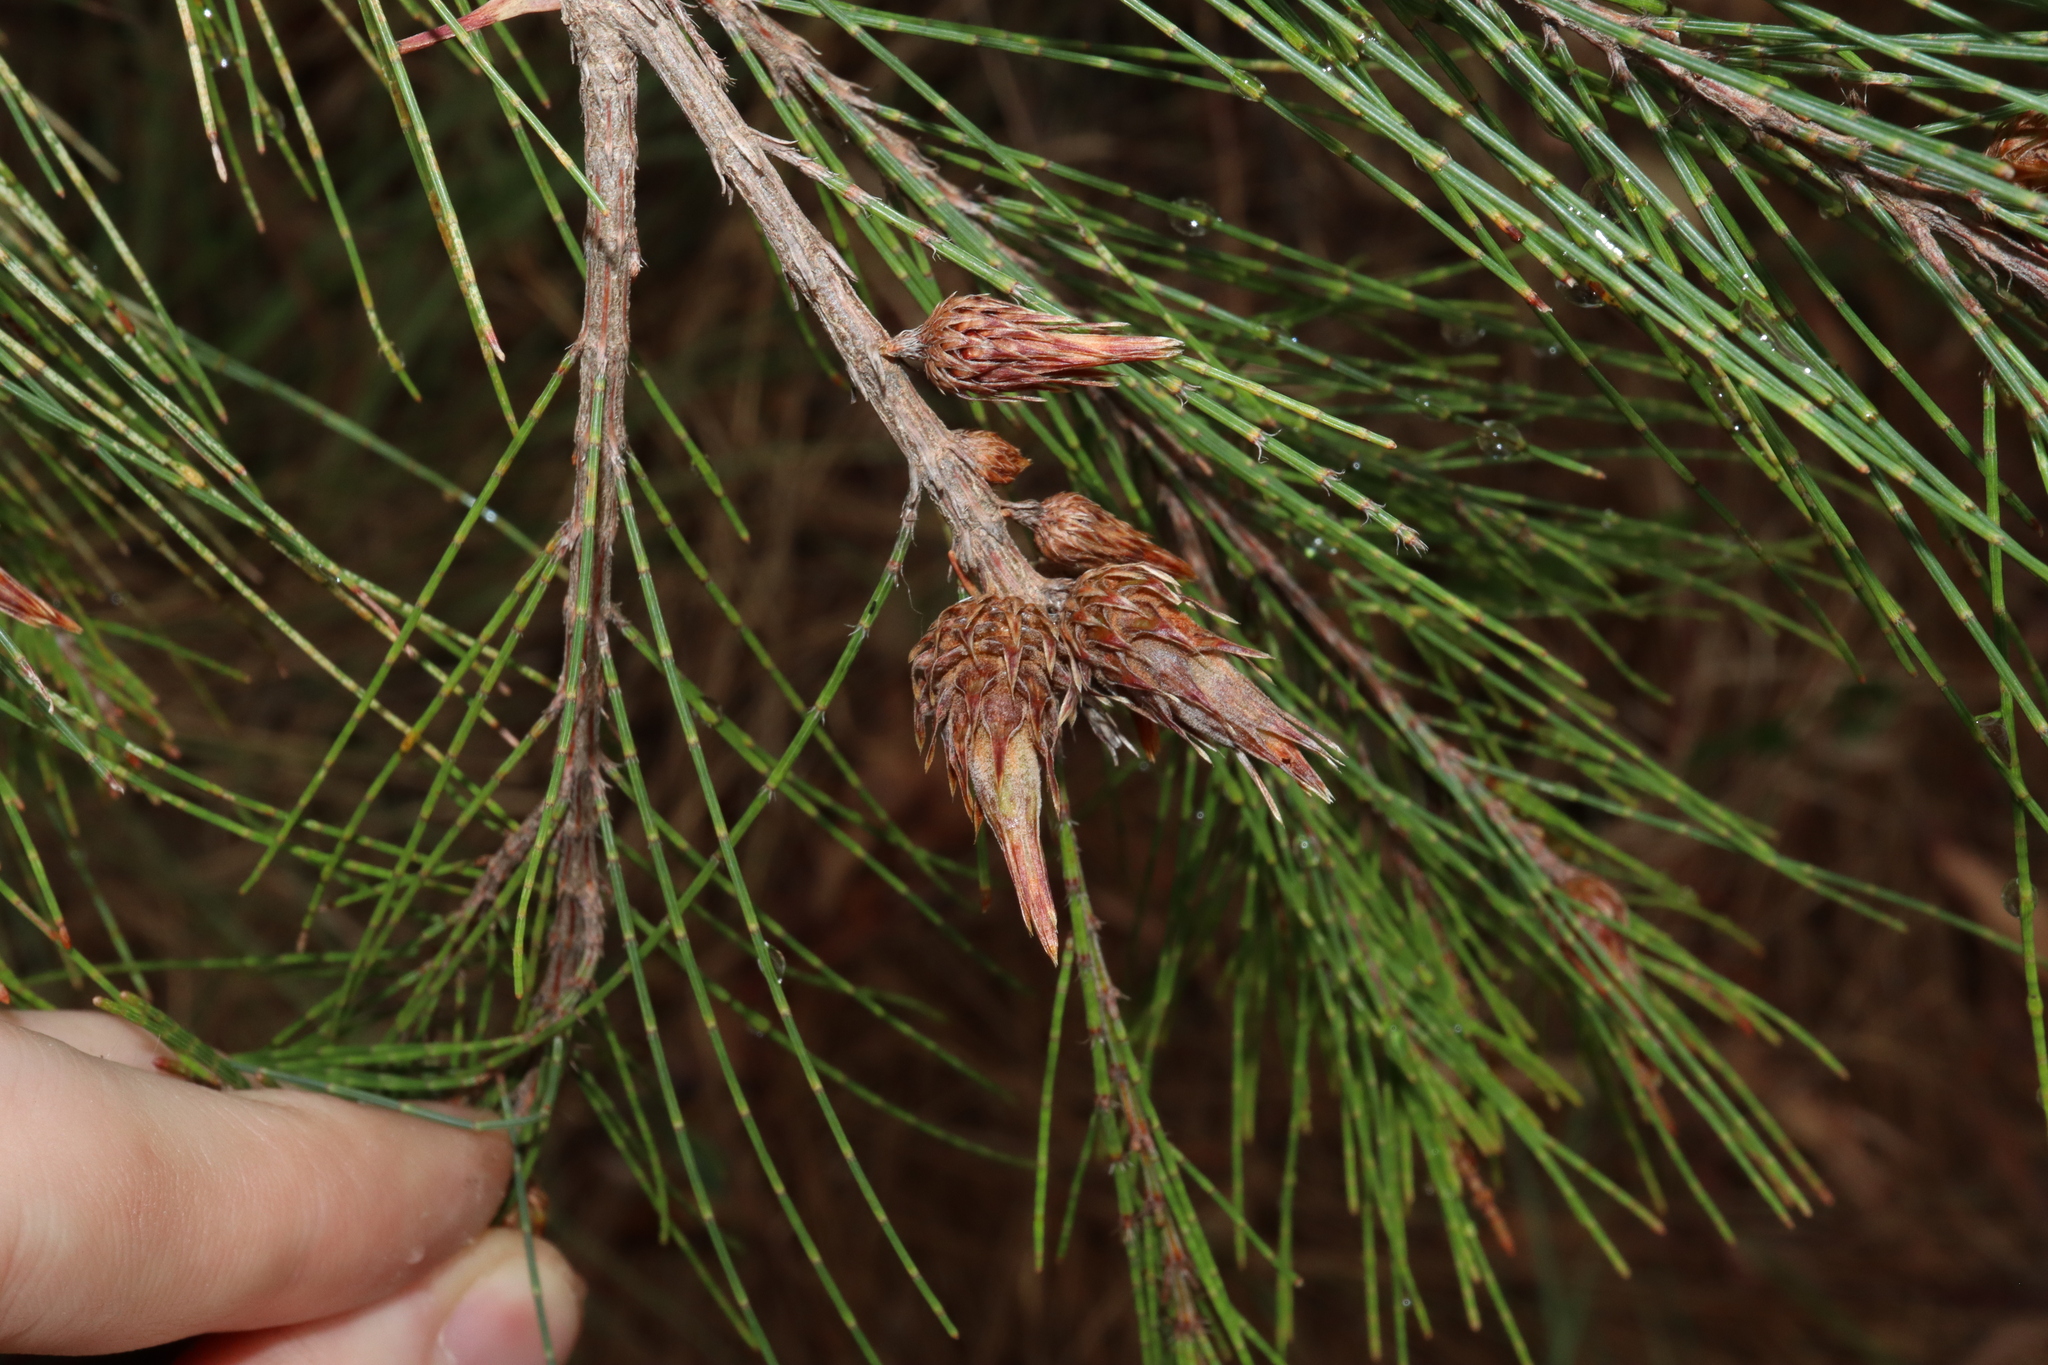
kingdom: Animalia
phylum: Arthropoda
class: Insecta
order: Hemiptera
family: Eriococcidae
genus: Cylindrococcus
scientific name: Cylindrococcus spiniferus
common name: Casuarina gall
